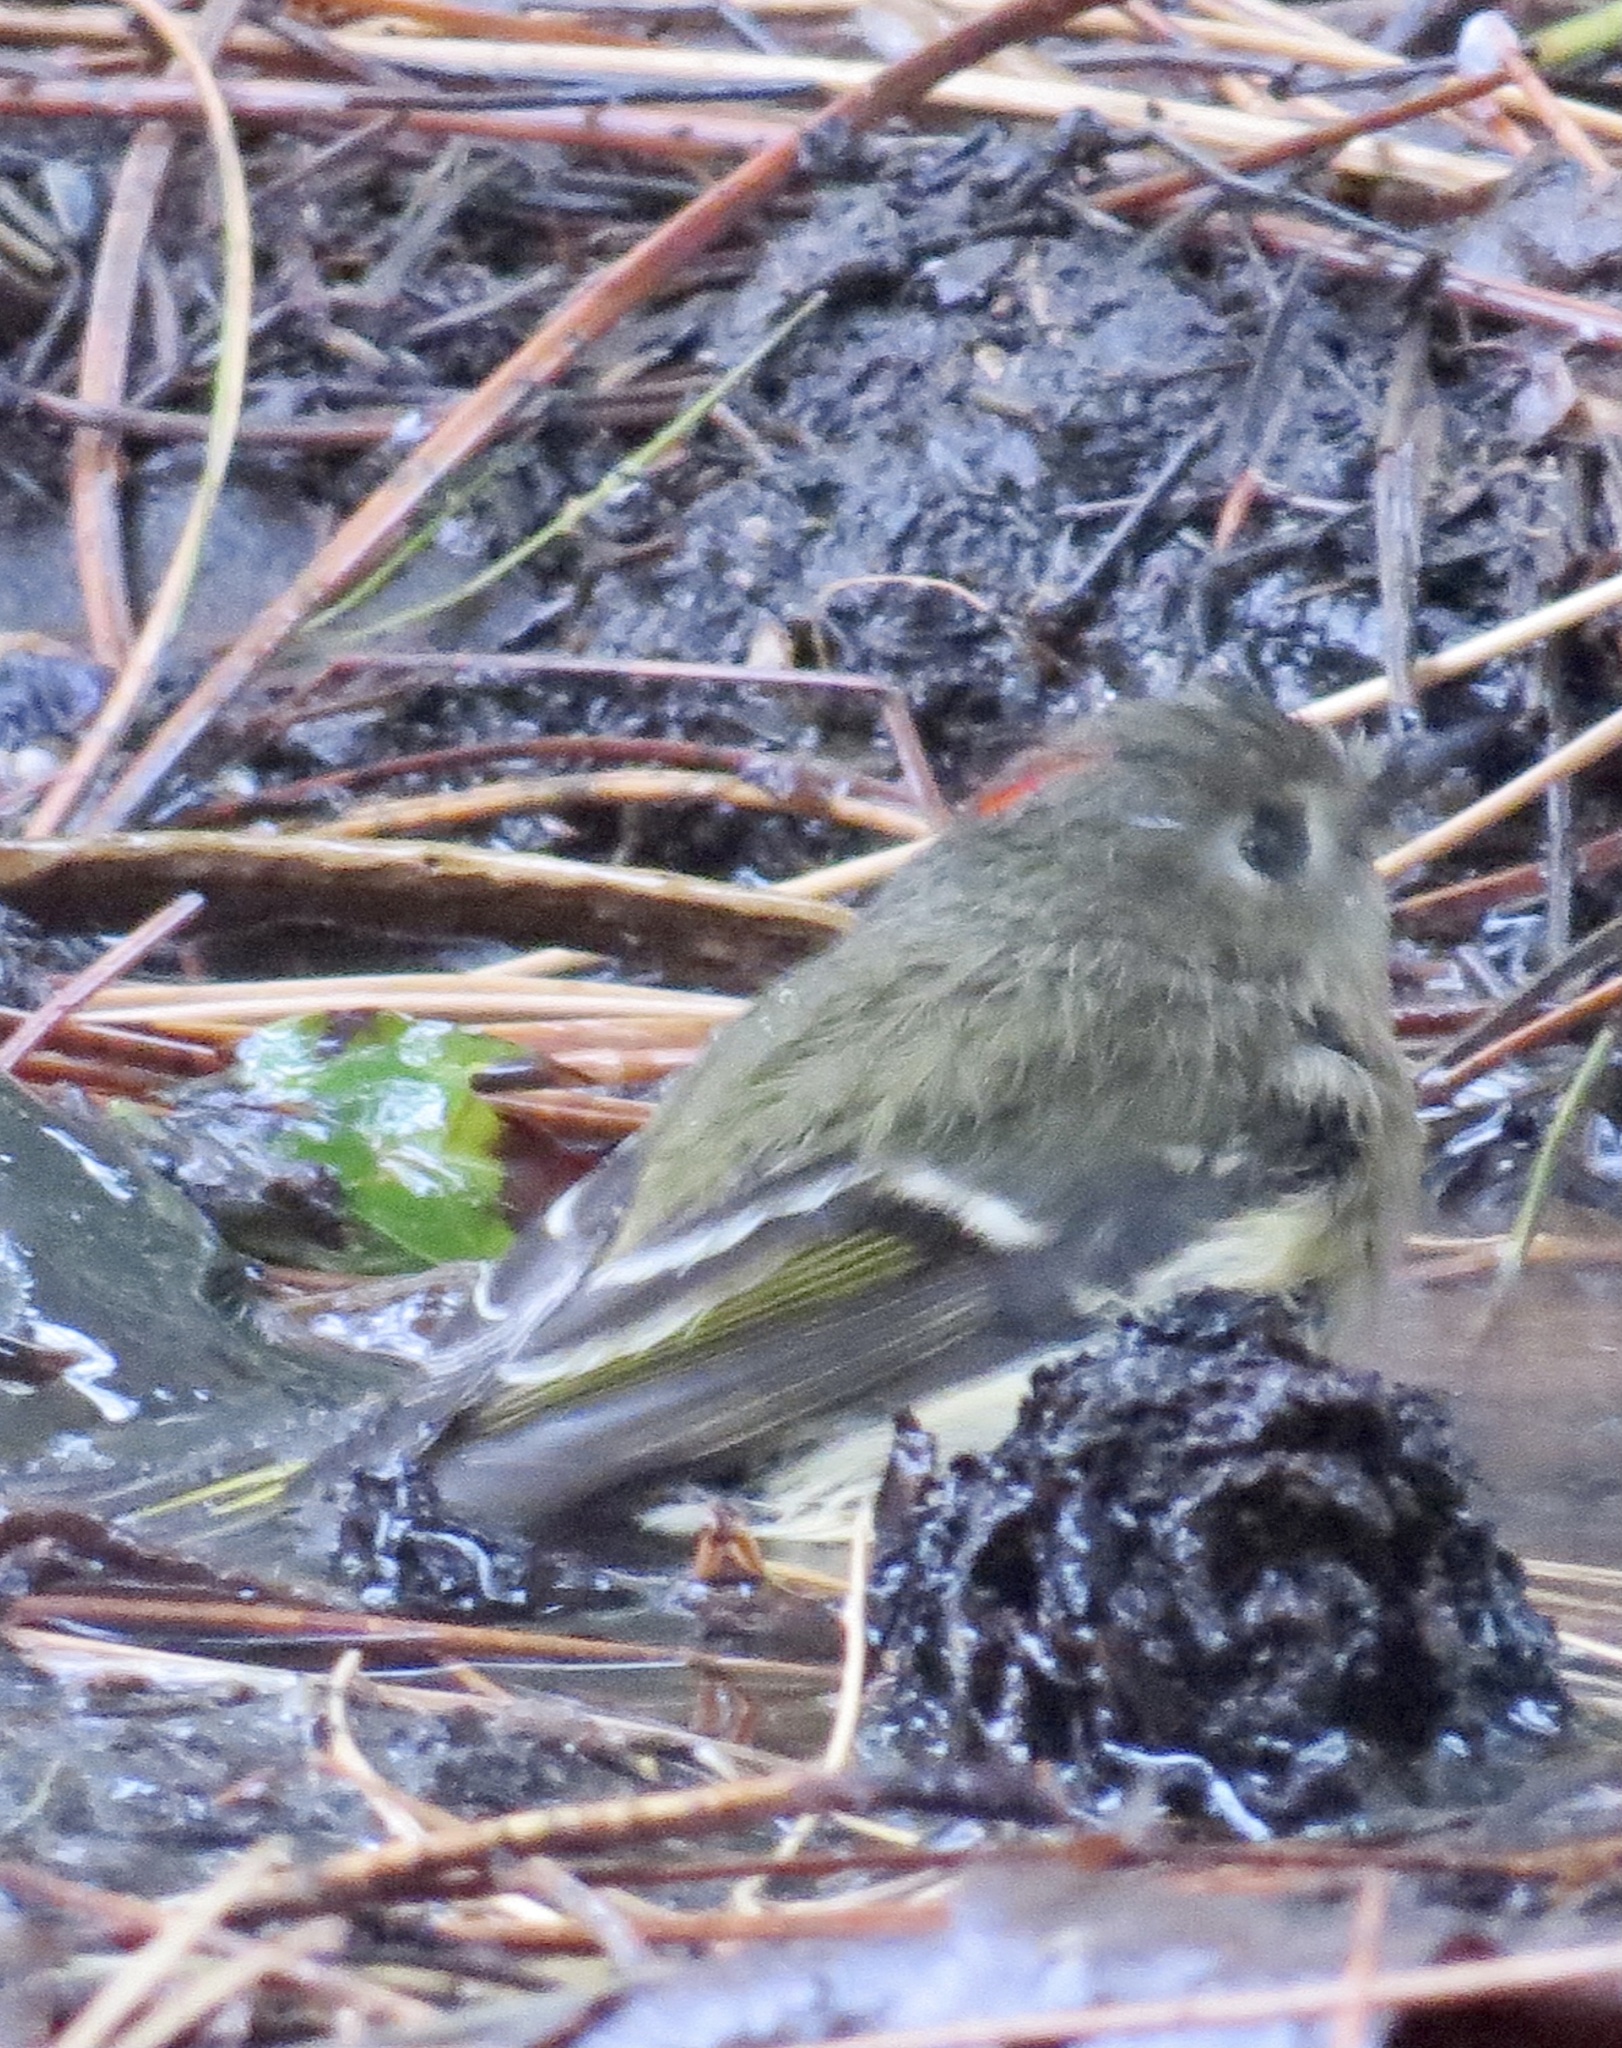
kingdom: Animalia
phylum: Chordata
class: Aves
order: Passeriformes
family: Regulidae
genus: Regulus
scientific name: Regulus calendula
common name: Ruby-crowned kinglet
